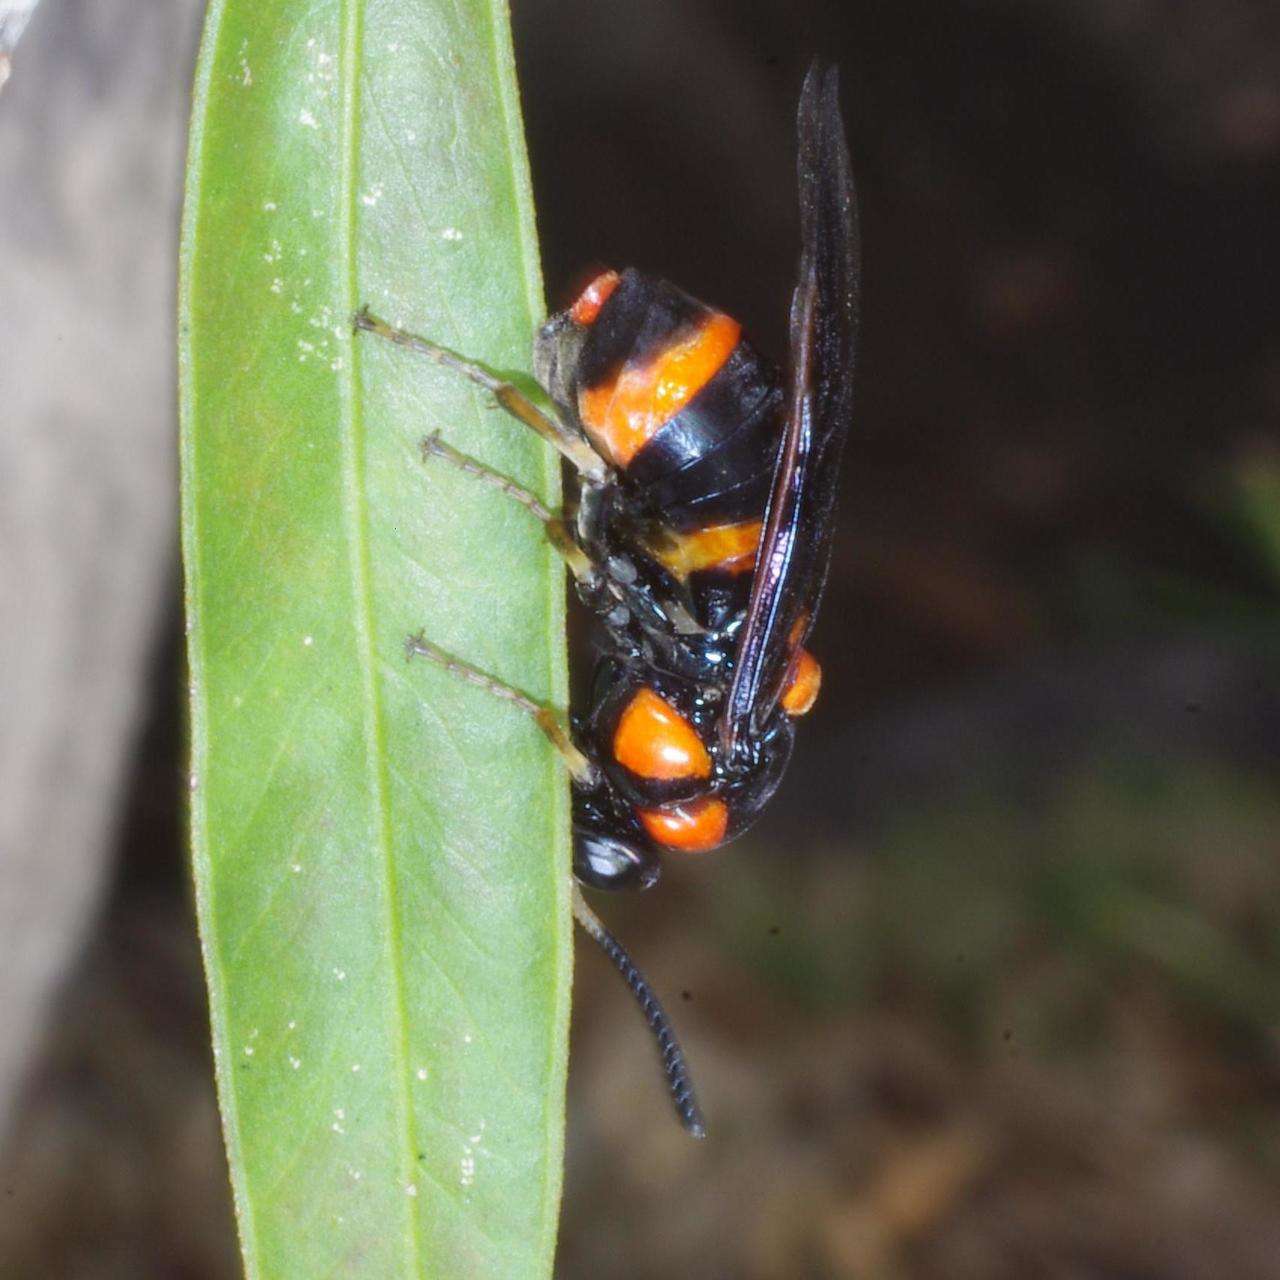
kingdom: Animalia
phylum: Arthropoda
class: Insecta
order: Hymenoptera
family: Pergidae
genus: Pterygophorus
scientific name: Pterygophorus
